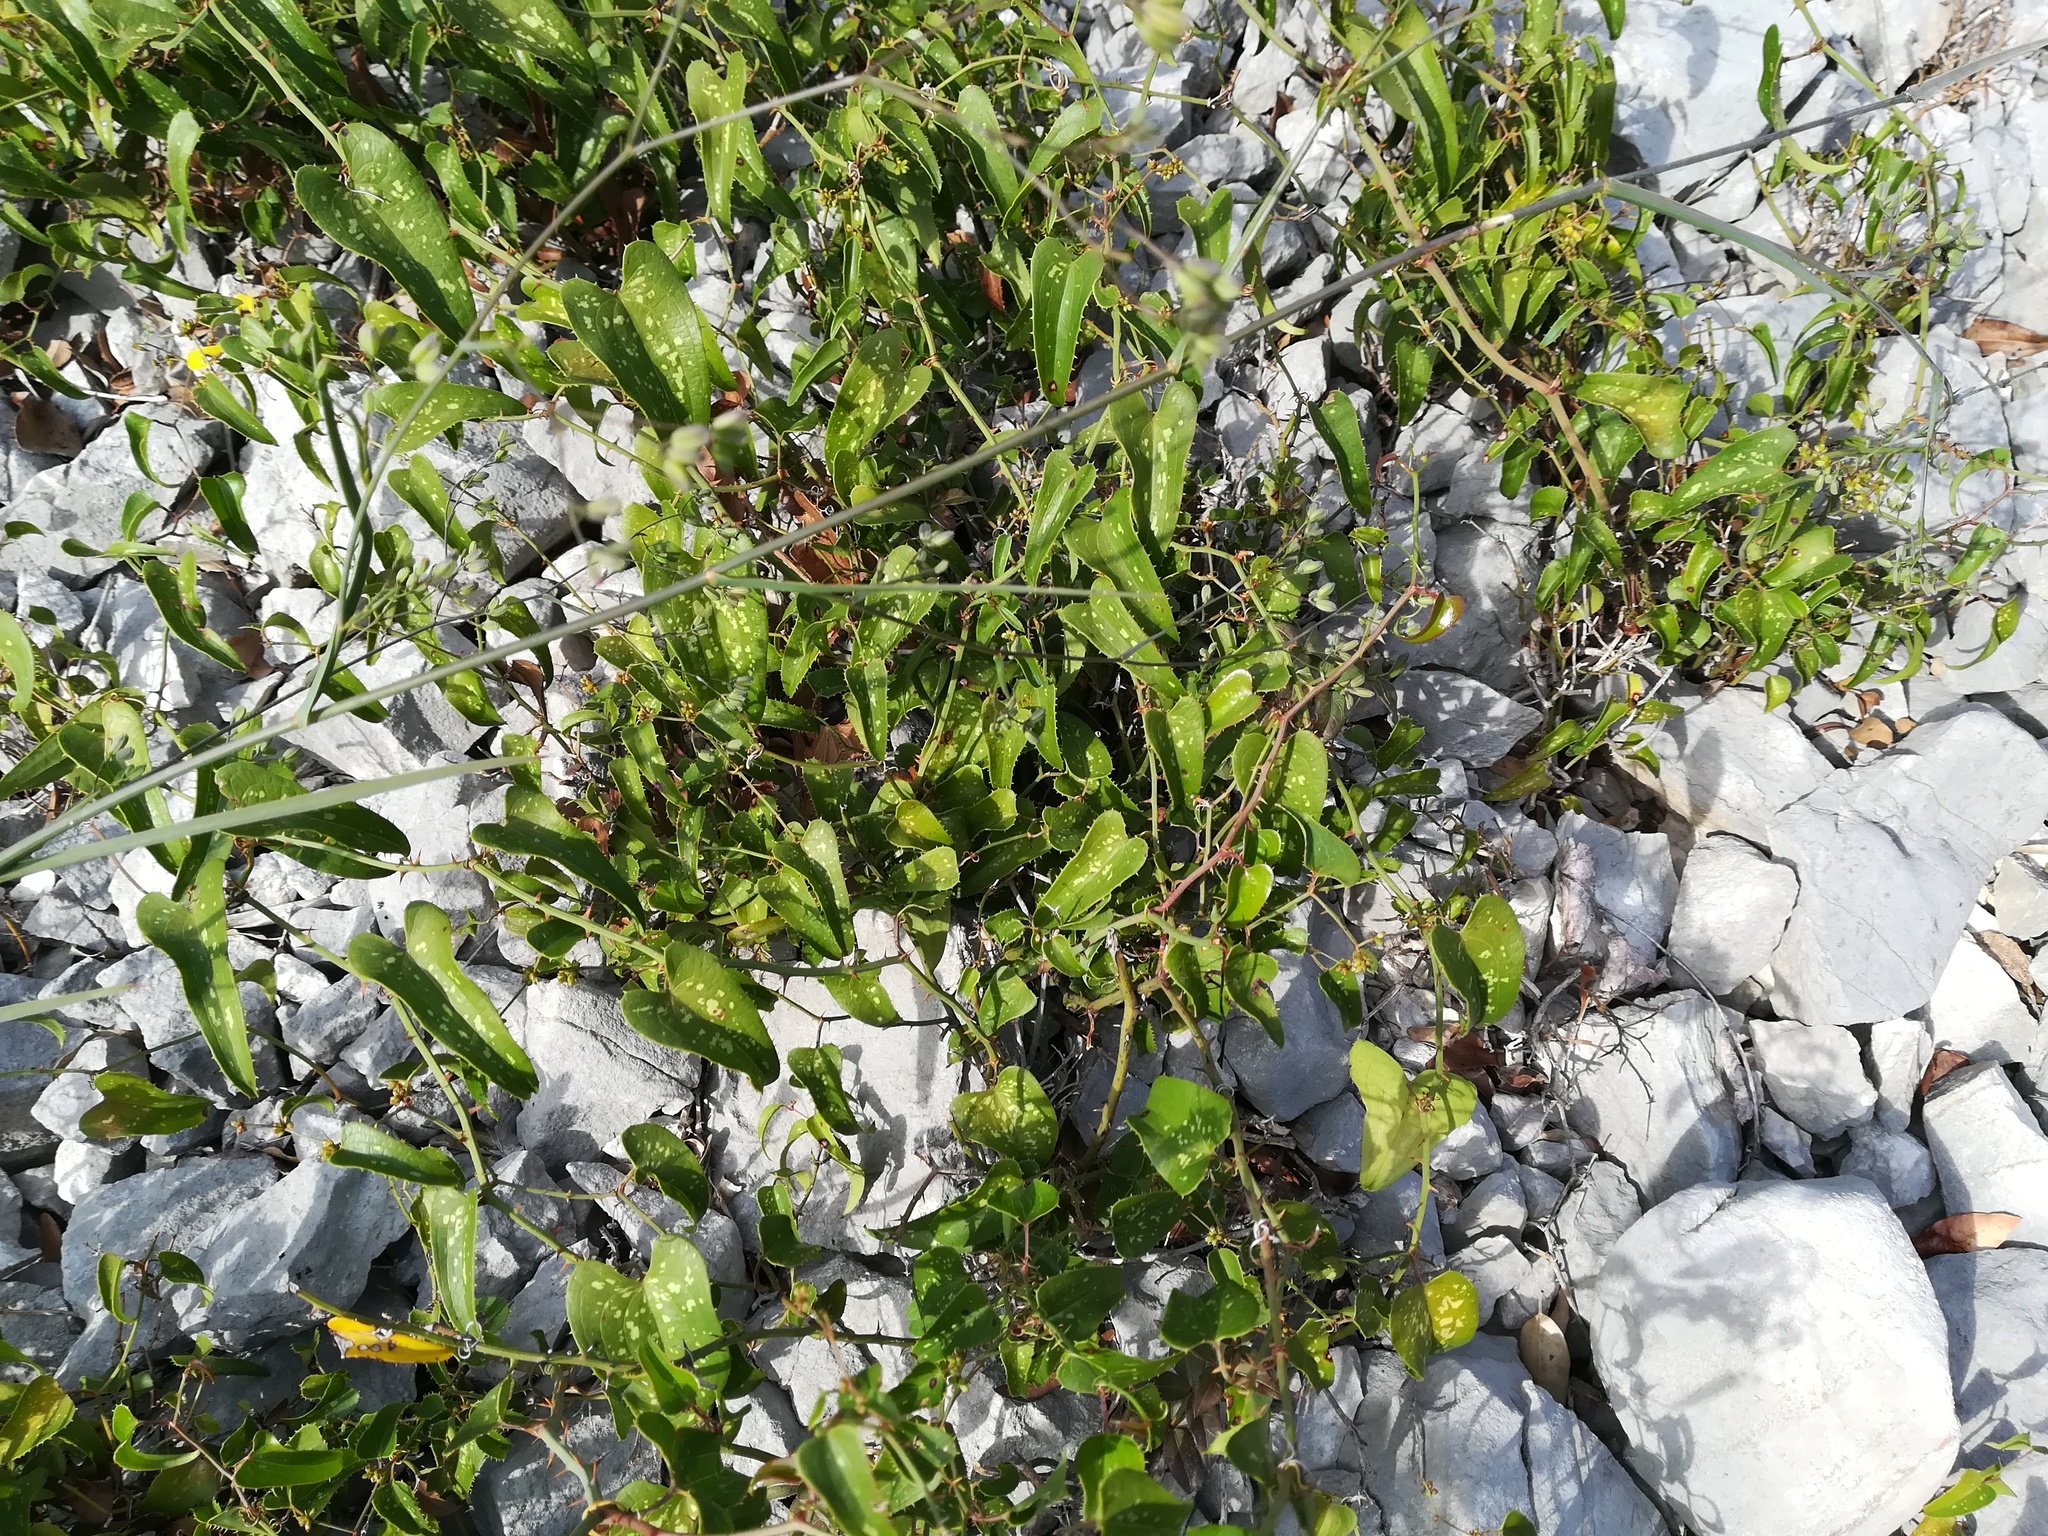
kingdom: Plantae
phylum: Tracheophyta
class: Liliopsida
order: Liliales
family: Smilacaceae
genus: Smilax
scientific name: Smilax aspera
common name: Common smilax
